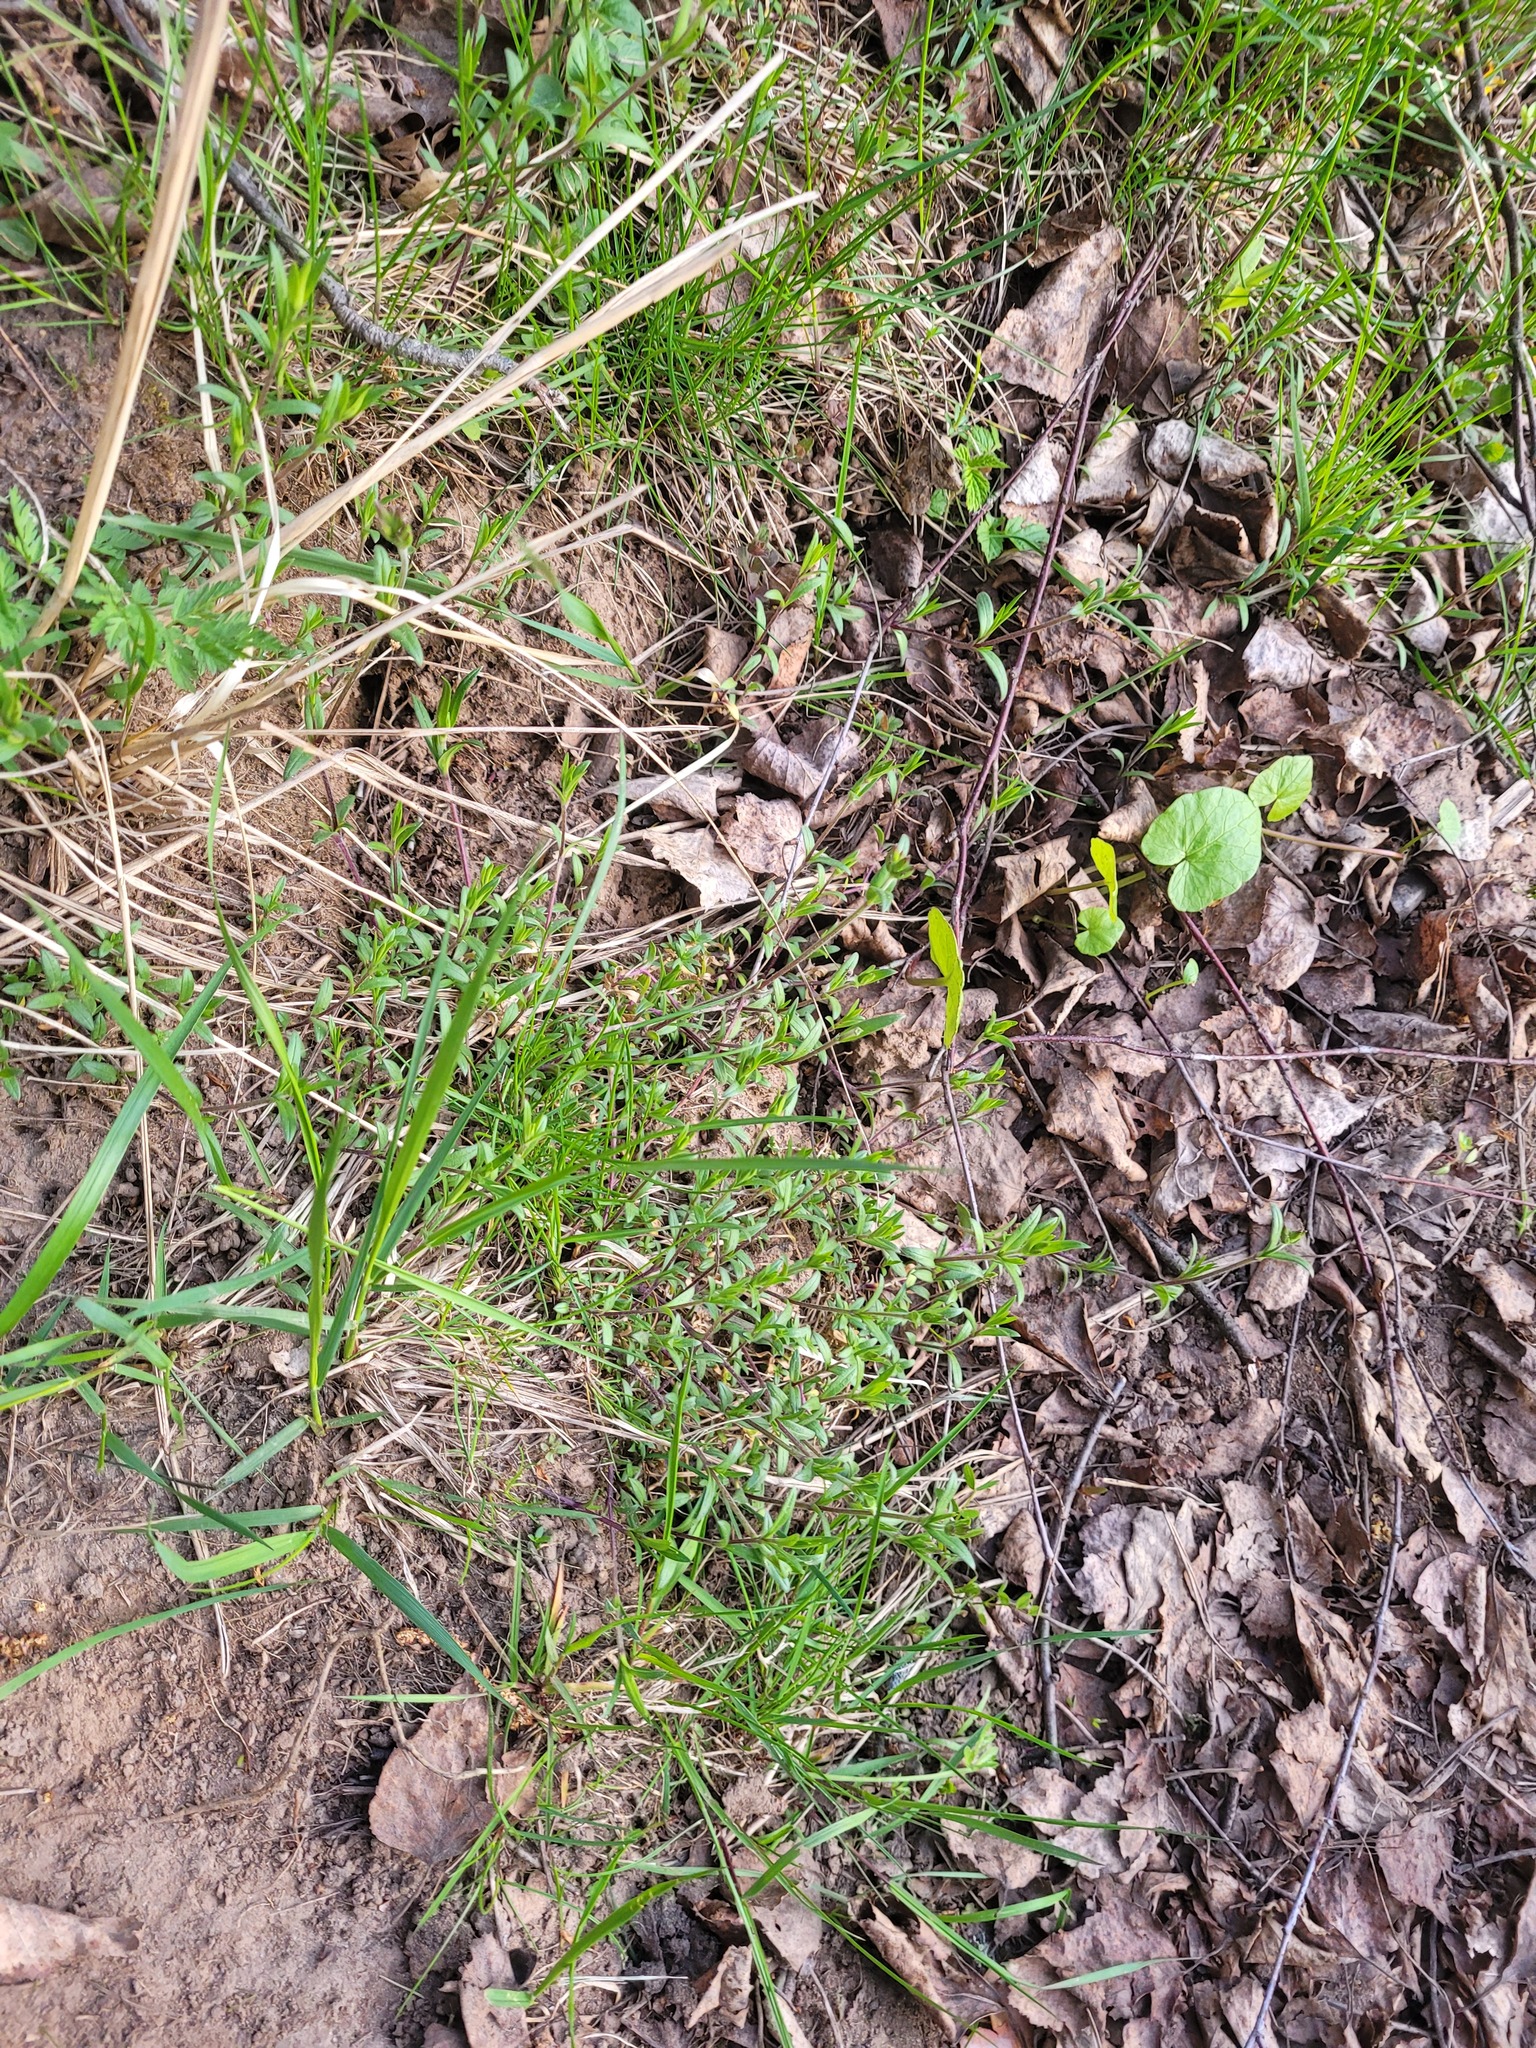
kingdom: Plantae
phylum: Tracheophyta
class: Magnoliopsida
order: Caryophyllales
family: Caryophyllaceae
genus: Cerastium
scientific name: Cerastium arvense
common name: Field mouse-ear
